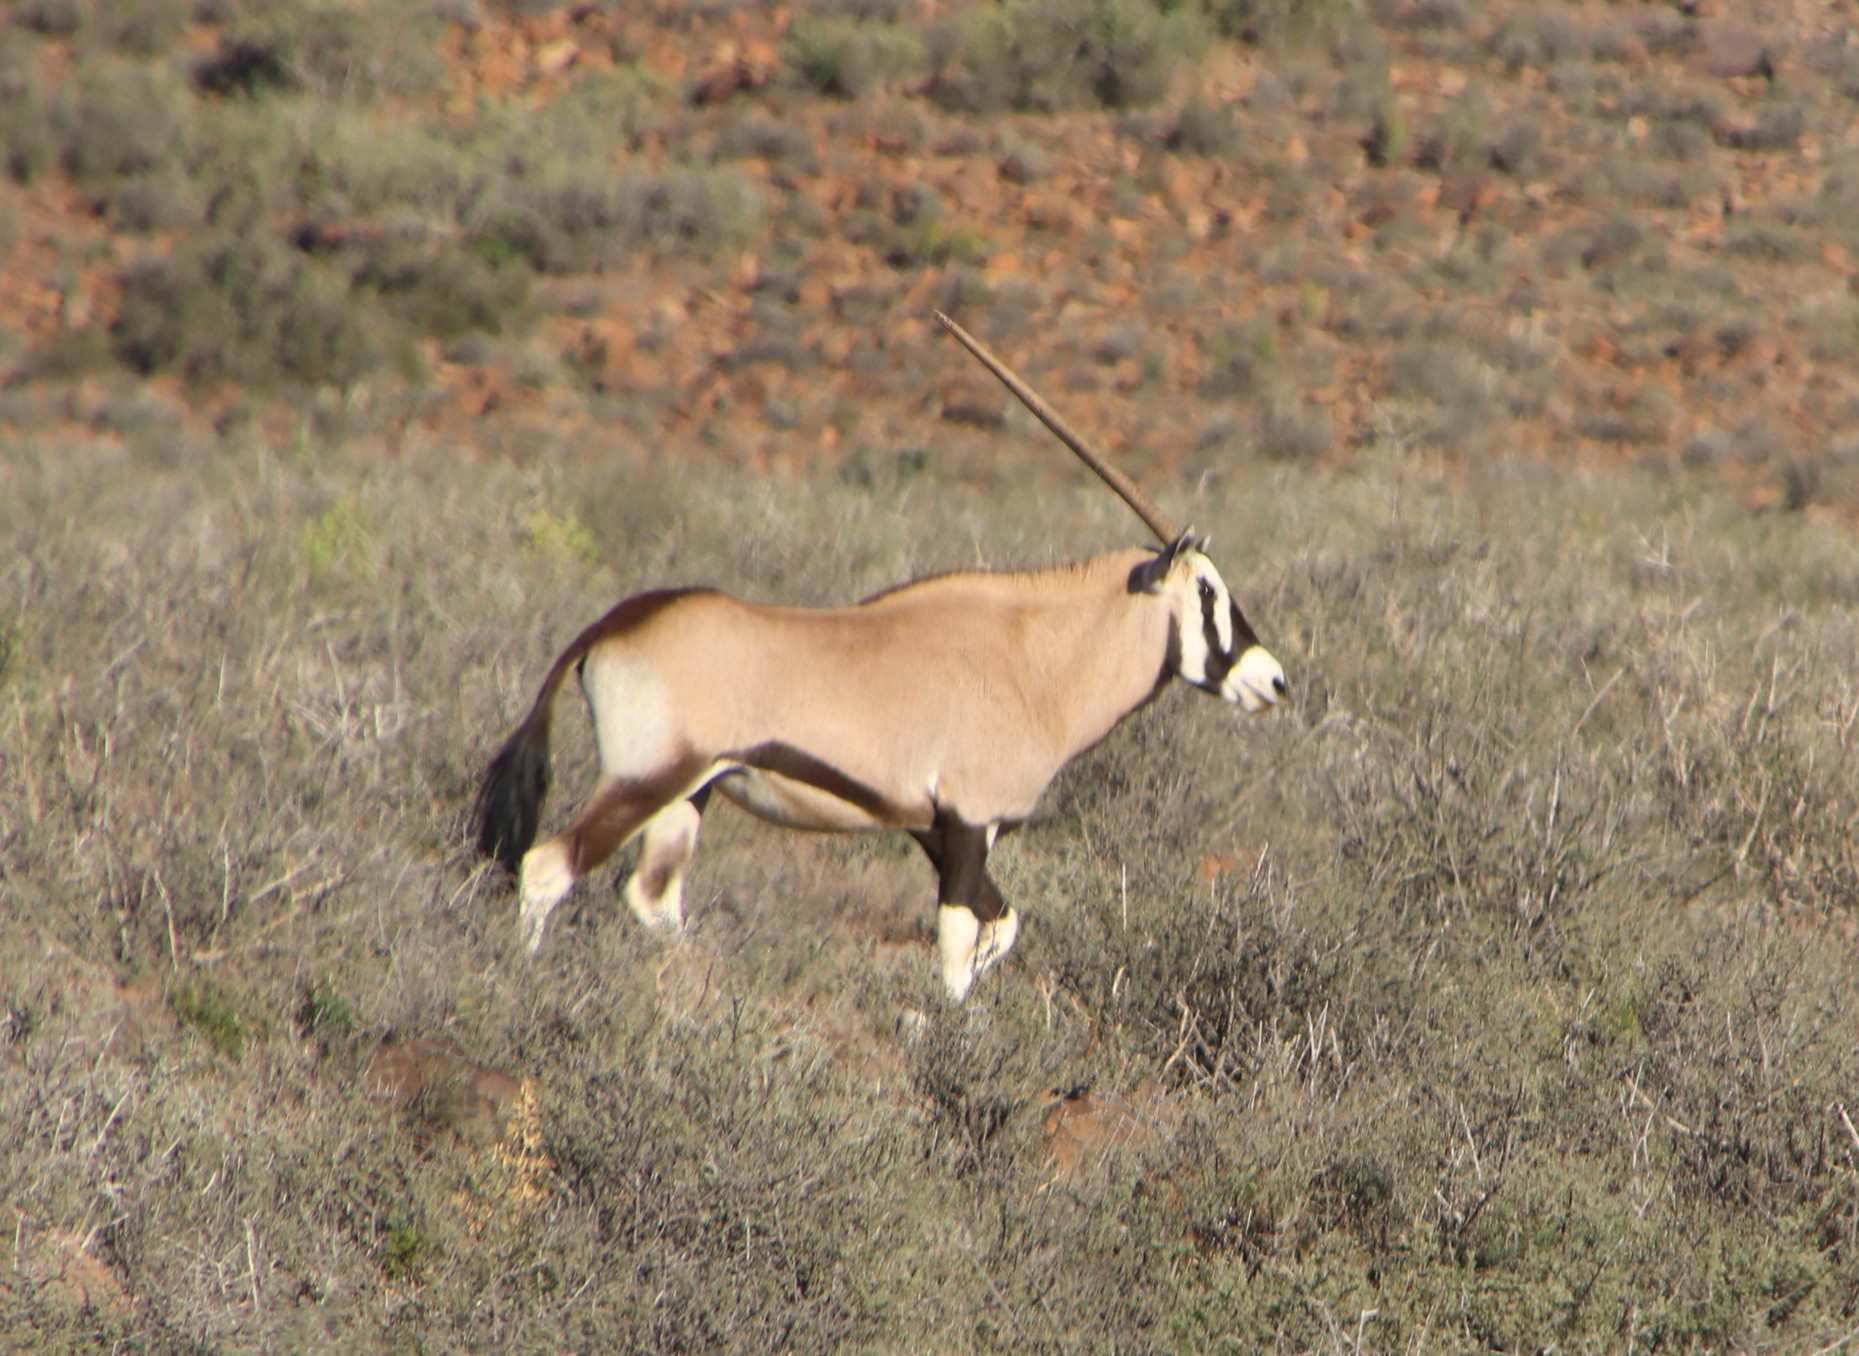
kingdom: Animalia
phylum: Chordata
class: Mammalia
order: Artiodactyla
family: Bovidae
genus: Oryx
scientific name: Oryx gazella
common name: Gemsbok
